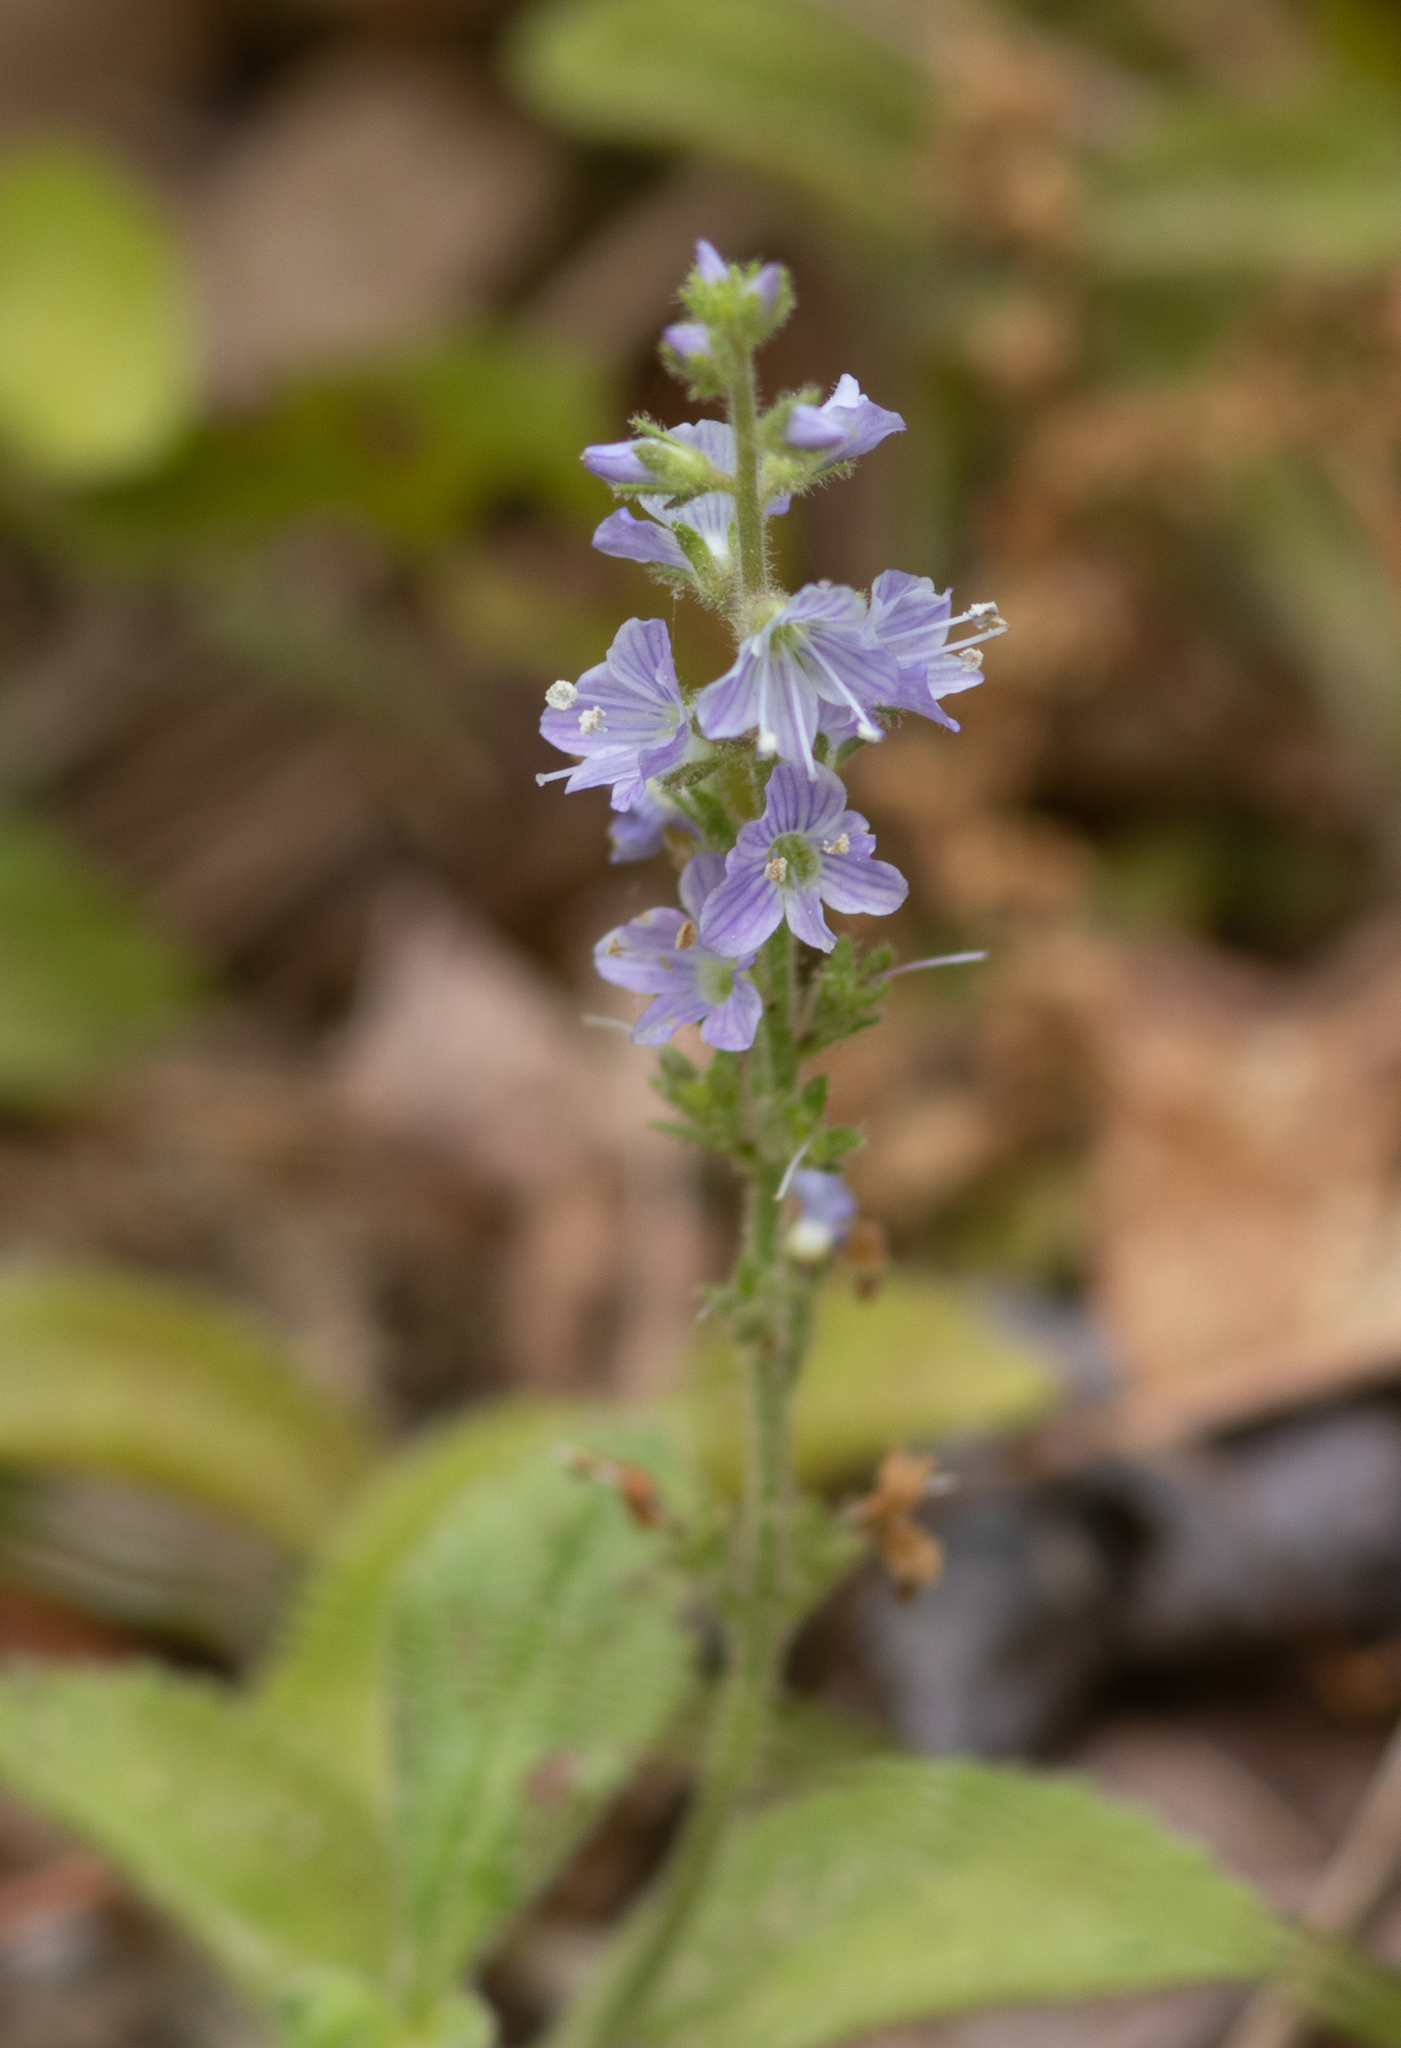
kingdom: Plantae
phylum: Tracheophyta
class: Magnoliopsida
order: Lamiales
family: Plantaginaceae
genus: Veronica
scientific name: Veronica officinalis
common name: Common speedwell
